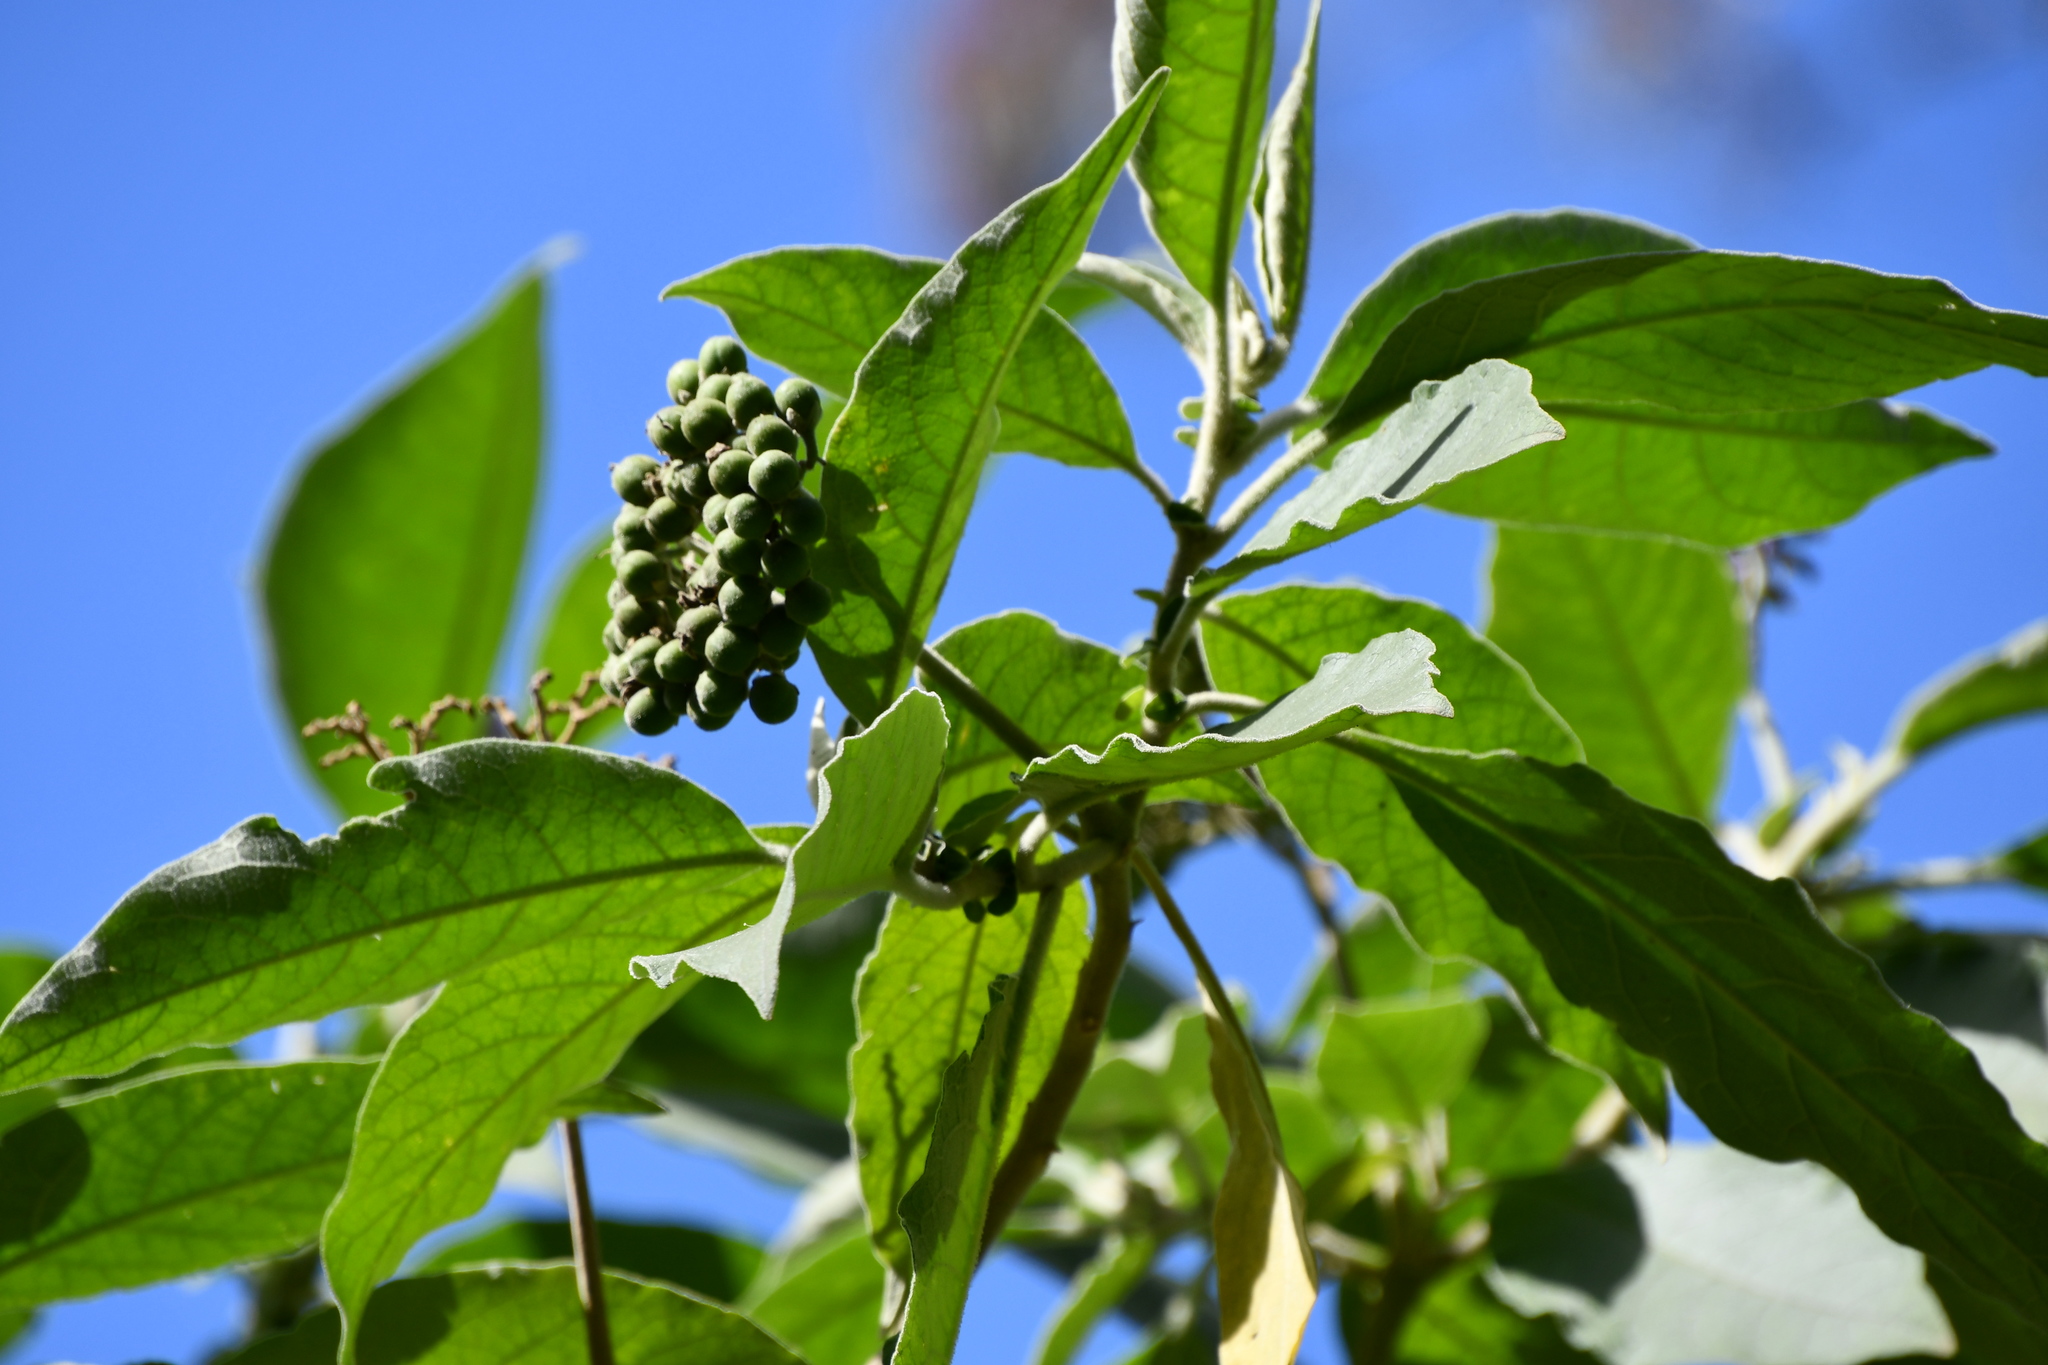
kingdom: Plantae
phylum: Tracheophyta
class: Magnoliopsida
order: Solanales
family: Solanaceae
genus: Solanum
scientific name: Solanum mauritianum
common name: Earleaf nightshade
